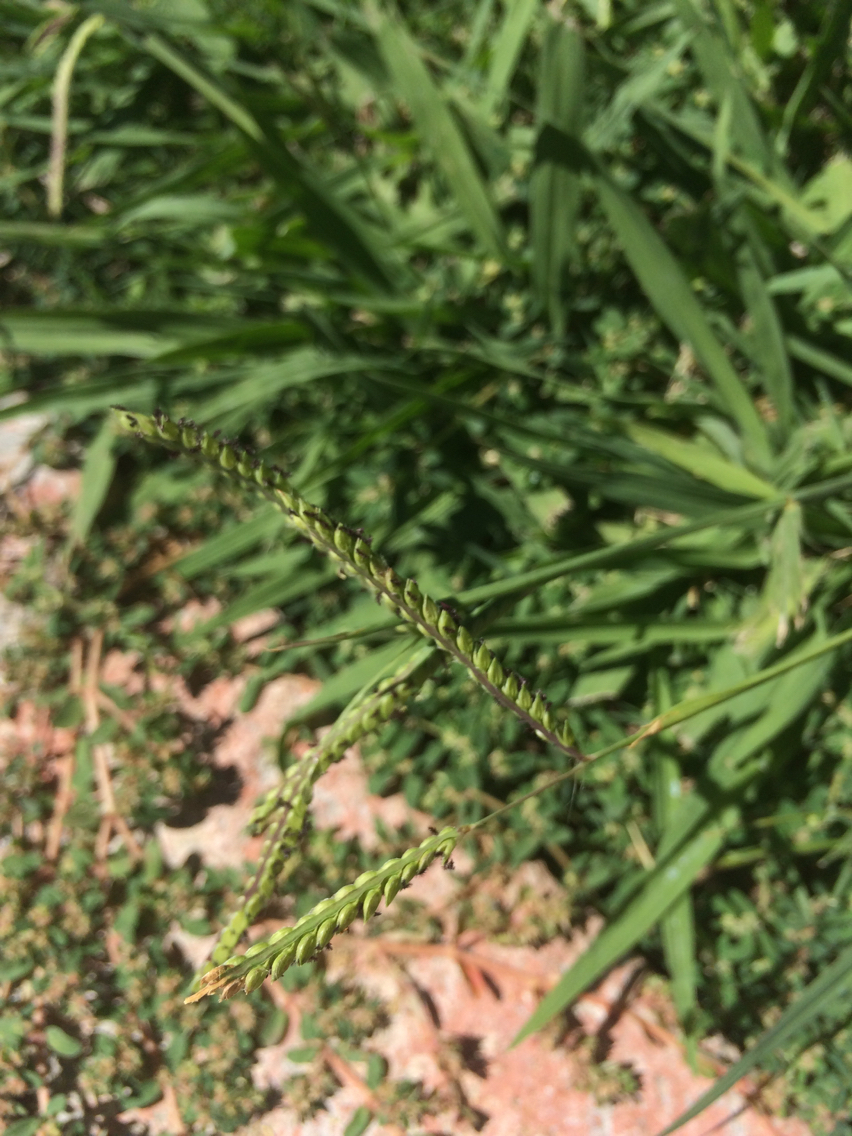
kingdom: Plantae
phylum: Tracheophyta
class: Liliopsida
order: Poales
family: Poaceae
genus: Paspalum
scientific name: Paspalum dilatatum
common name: Dallisgrass
